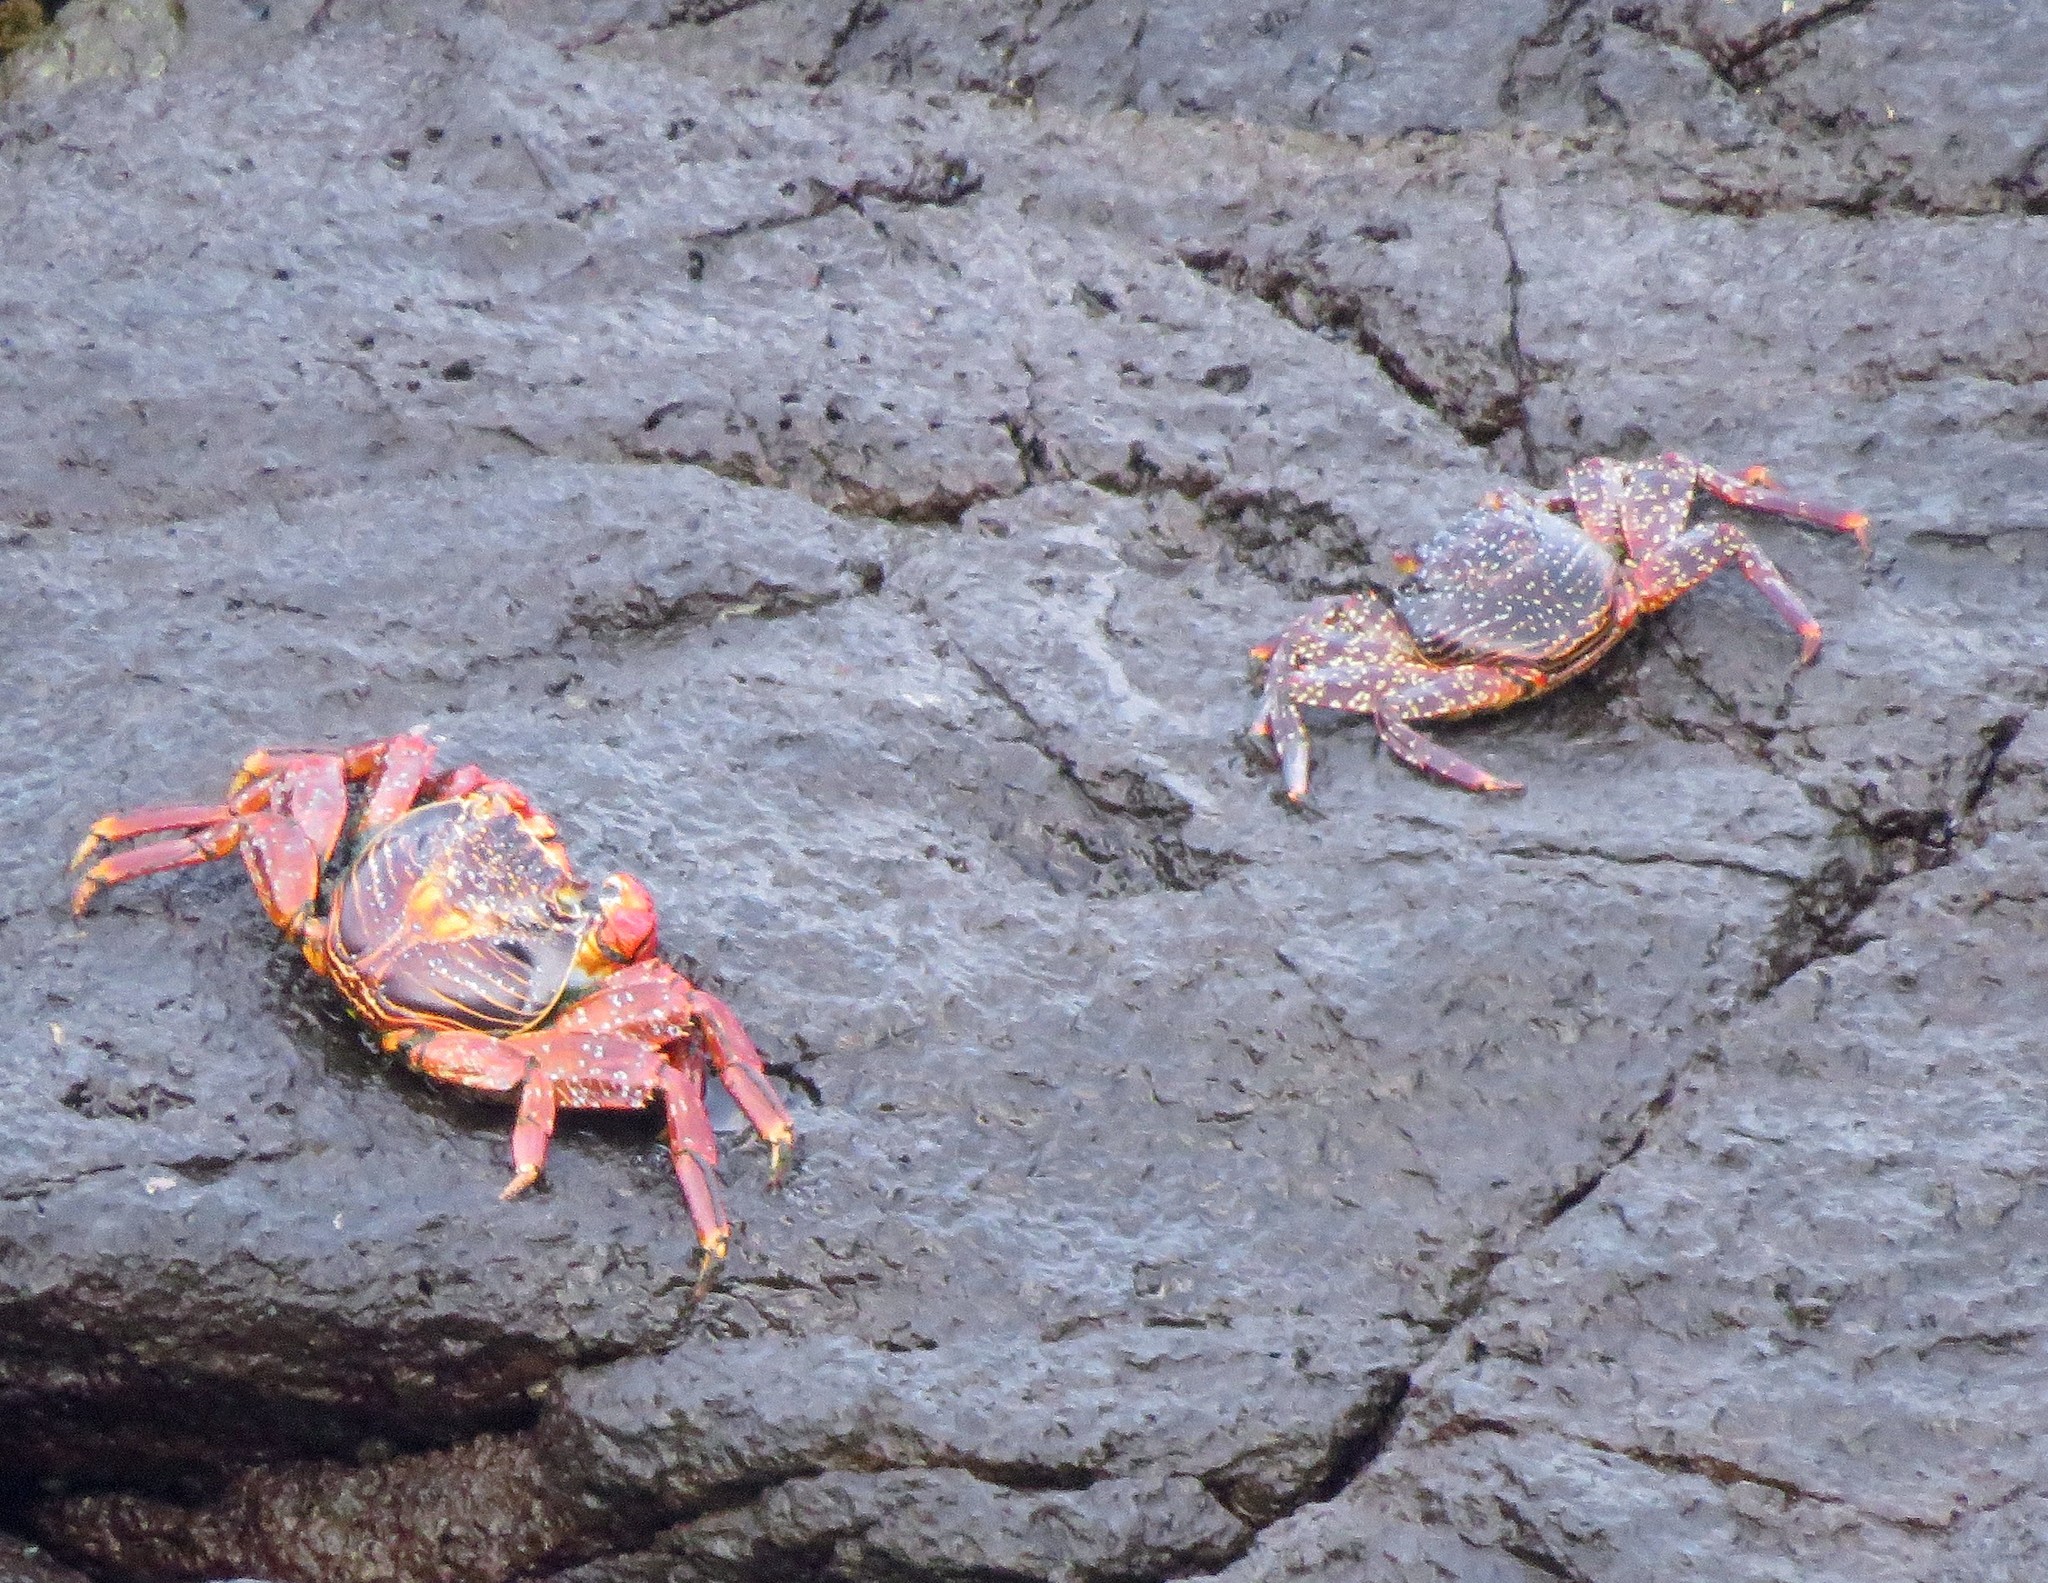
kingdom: Animalia
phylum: Arthropoda
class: Malacostraca
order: Decapoda
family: Grapsidae
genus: Grapsus
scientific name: Grapsus grapsus
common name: Sally lightfoot
